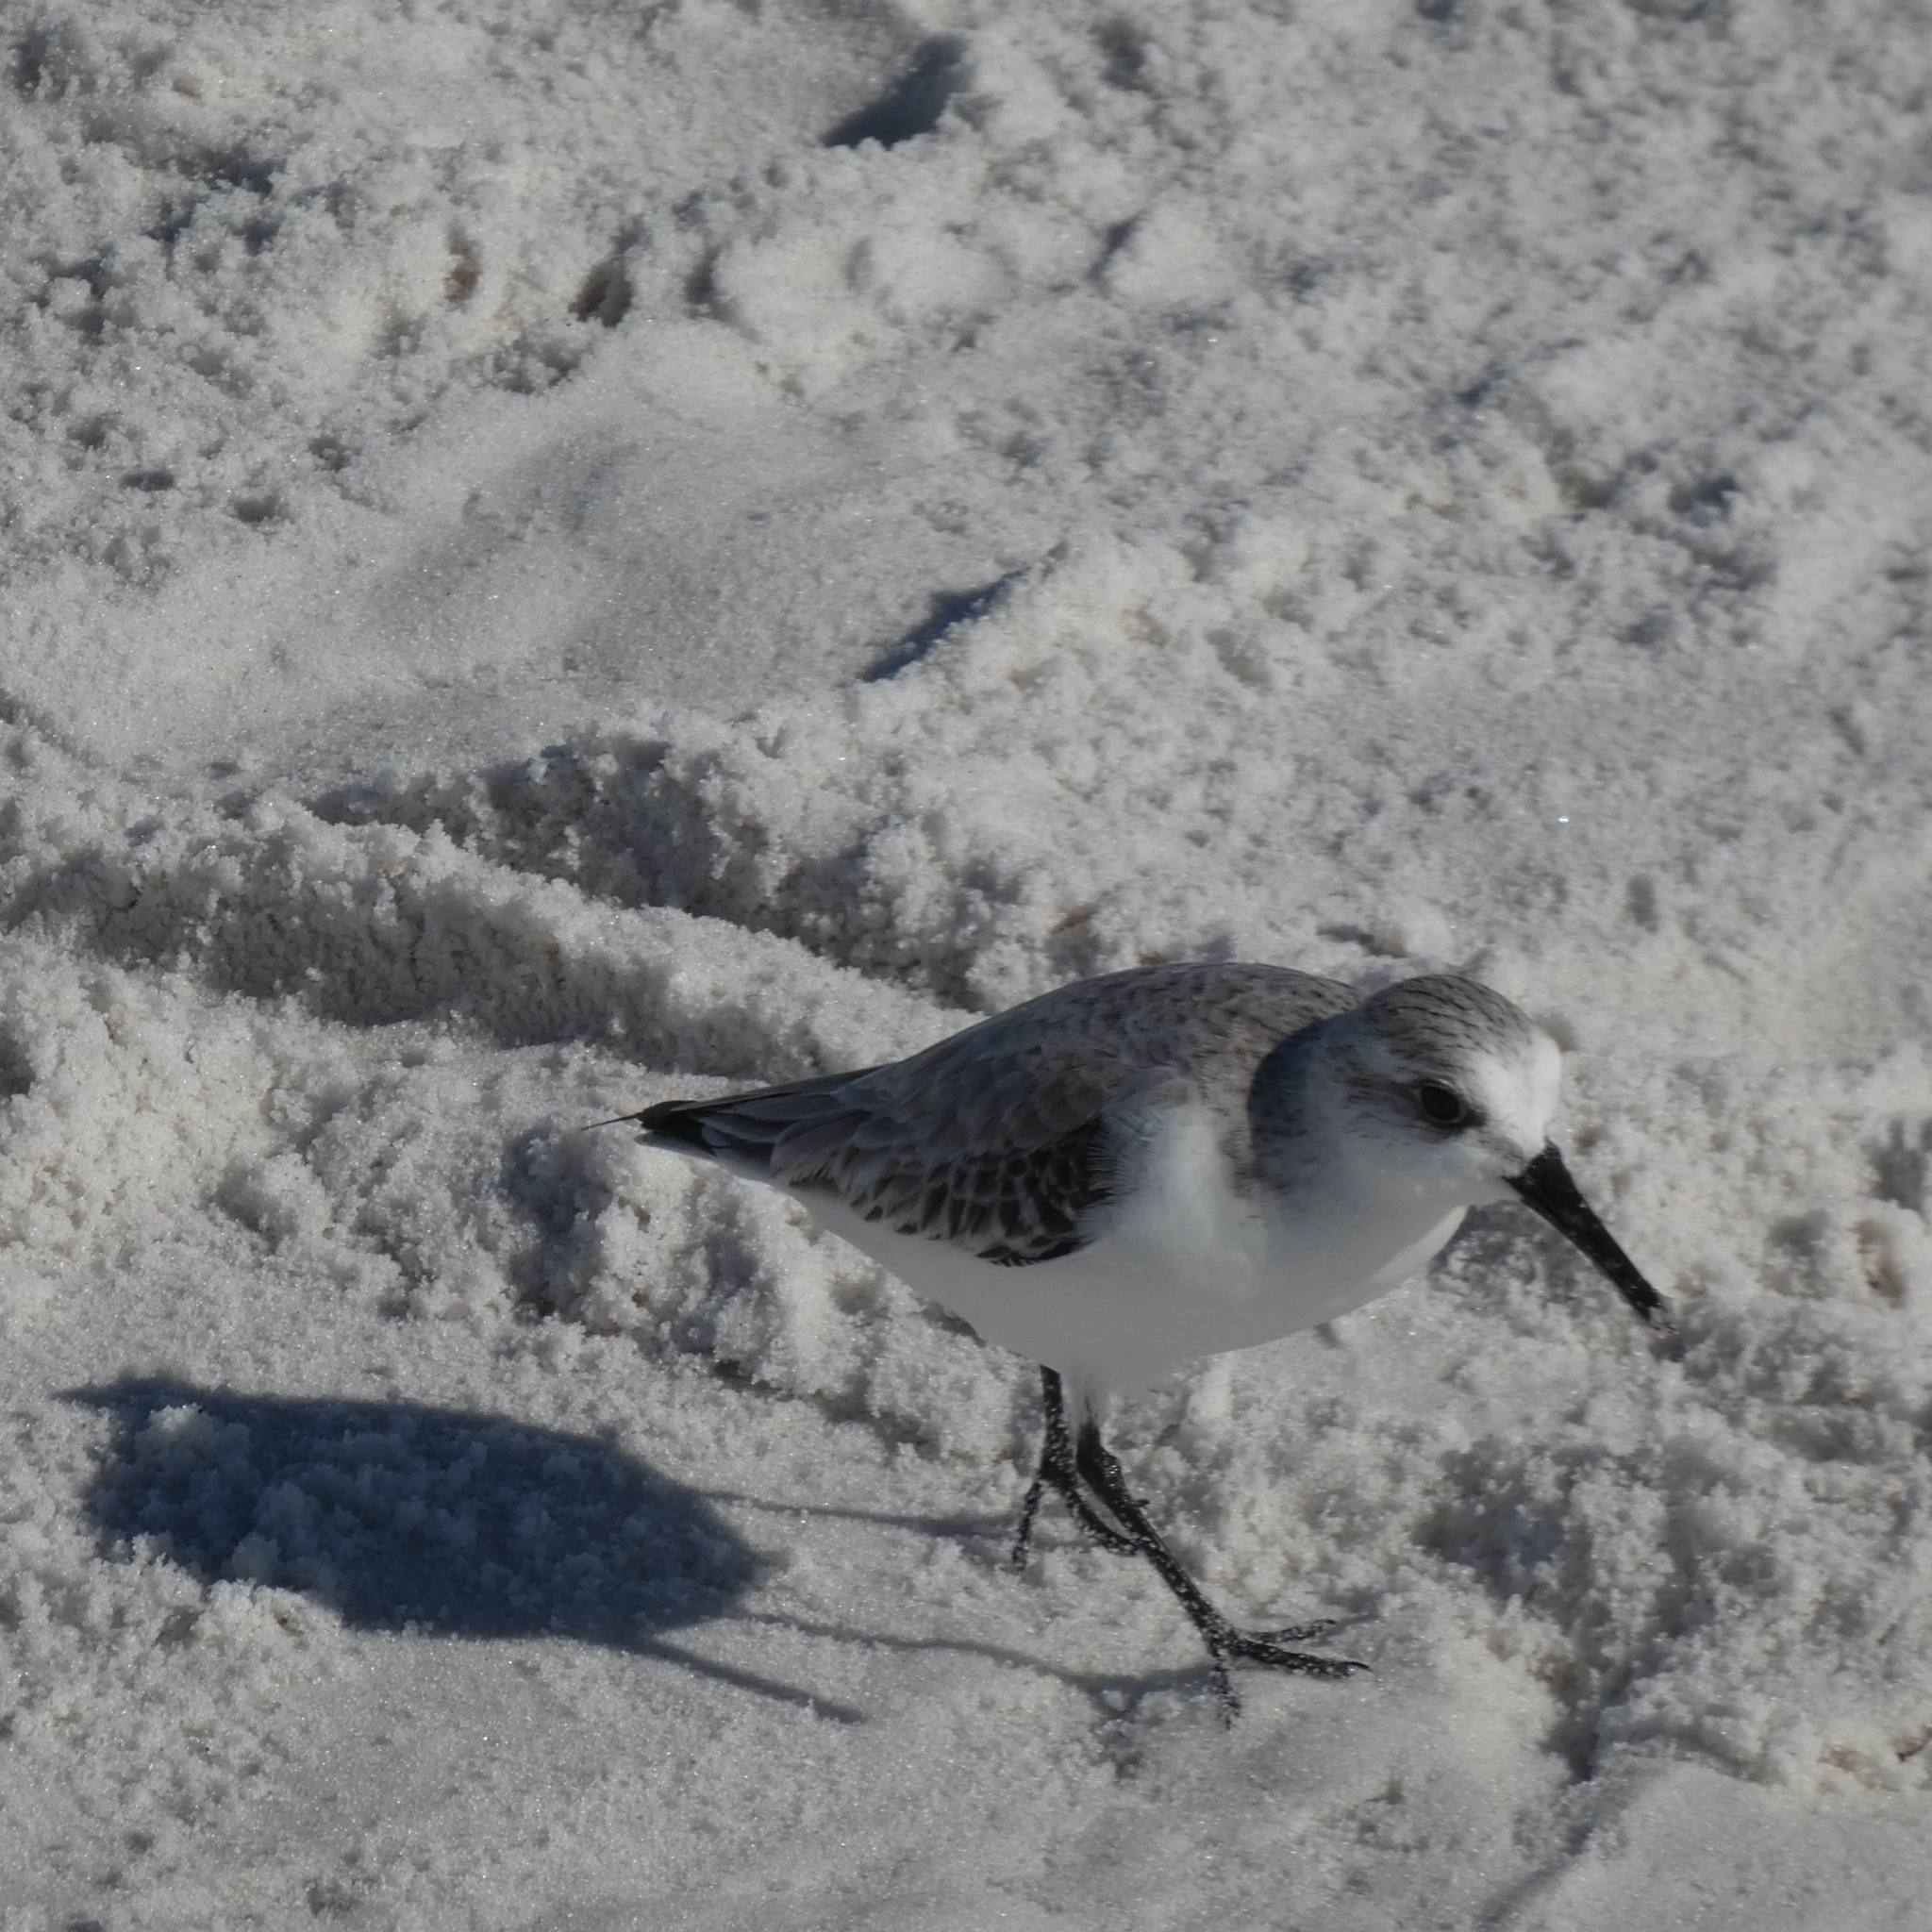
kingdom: Animalia
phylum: Chordata
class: Aves
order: Charadriiformes
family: Scolopacidae
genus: Calidris
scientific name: Calidris alba
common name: Sanderling
